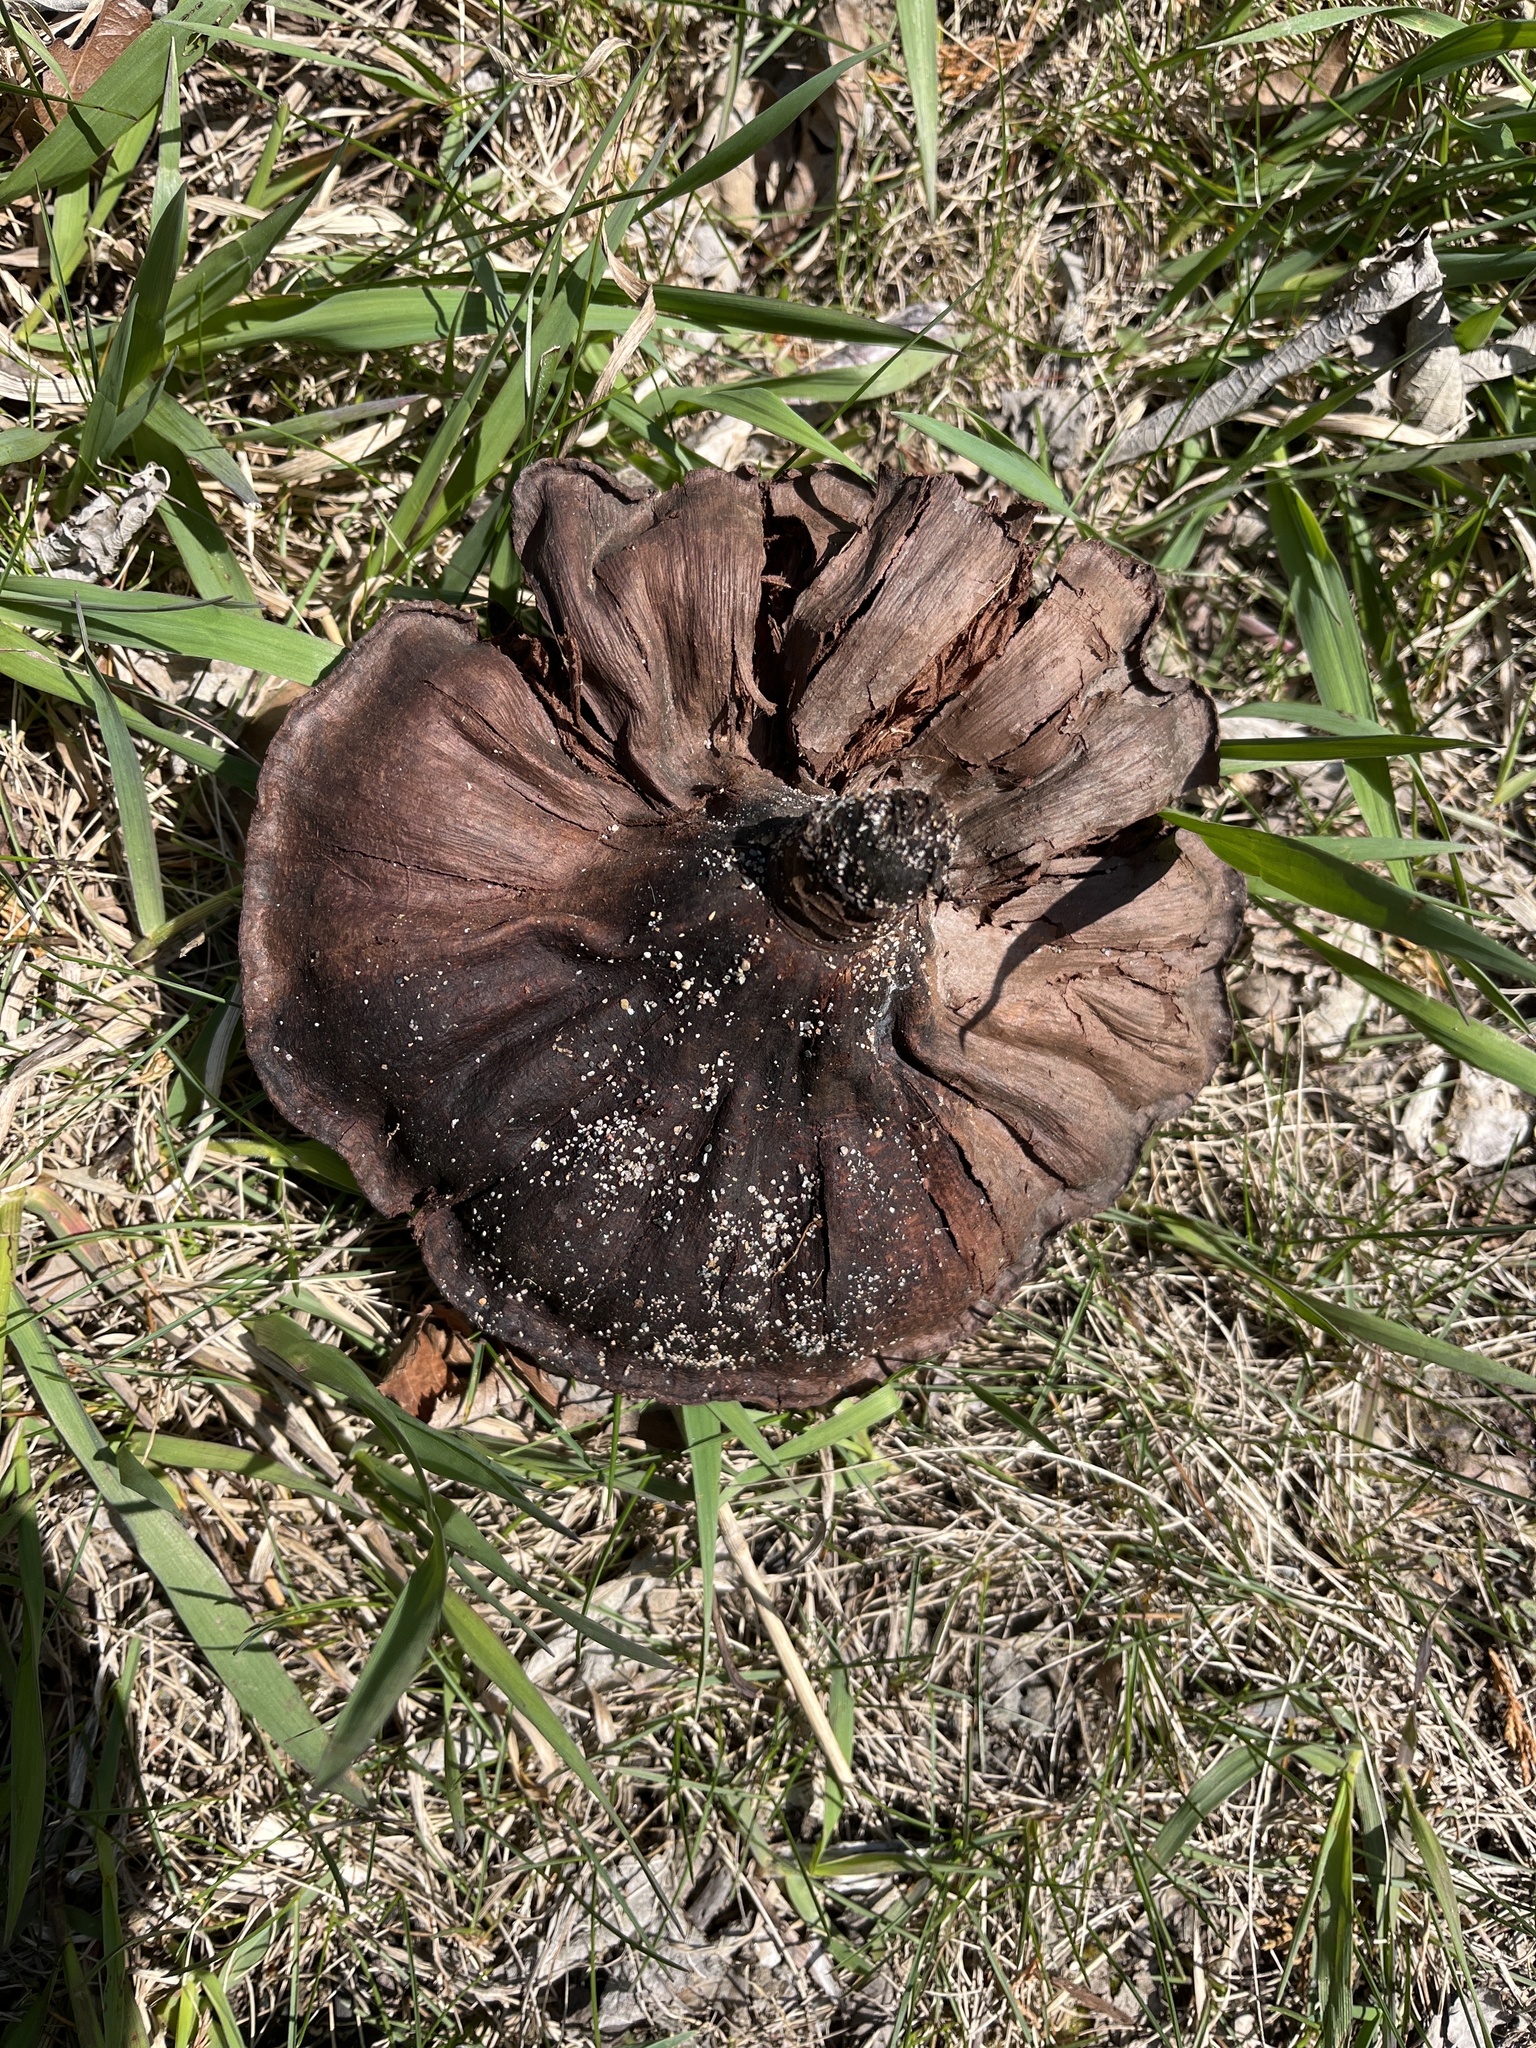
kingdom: Plantae
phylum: Tracheophyta
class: Magnoliopsida
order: Proteales
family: Nelumbonaceae
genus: Nelumbo
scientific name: Nelumbo lutea
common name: American lotus
